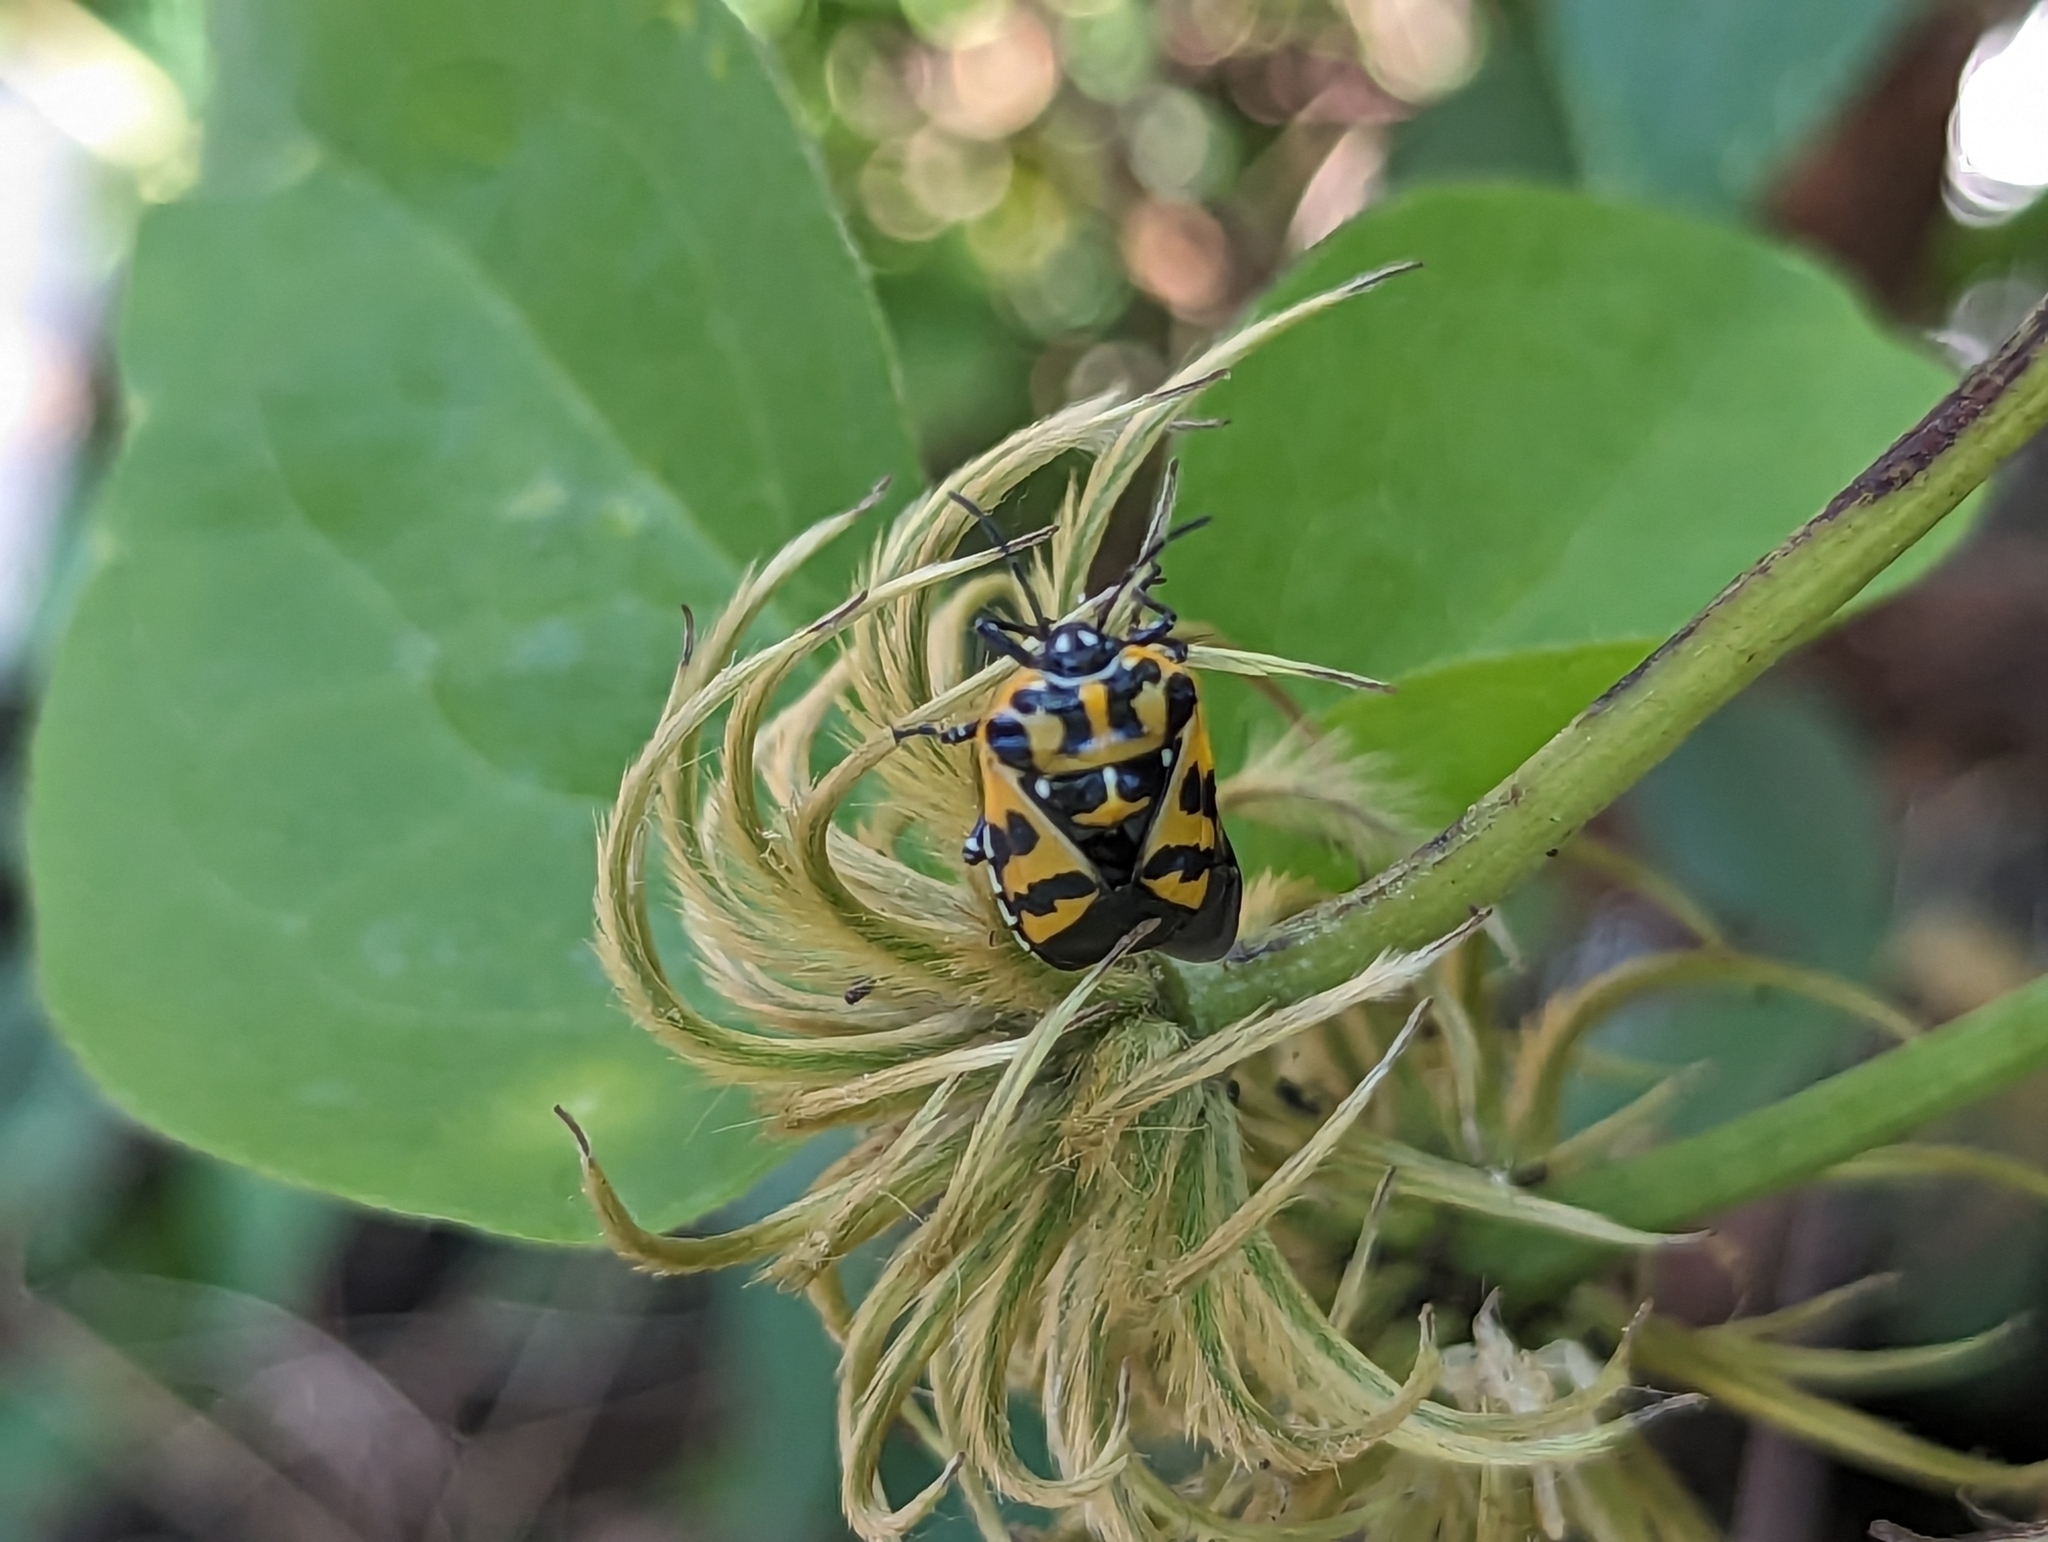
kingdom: Animalia
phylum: Arthropoda
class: Insecta
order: Hemiptera
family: Pentatomidae
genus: Murgantia
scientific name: Murgantia histrionica
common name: Harlequin bug
